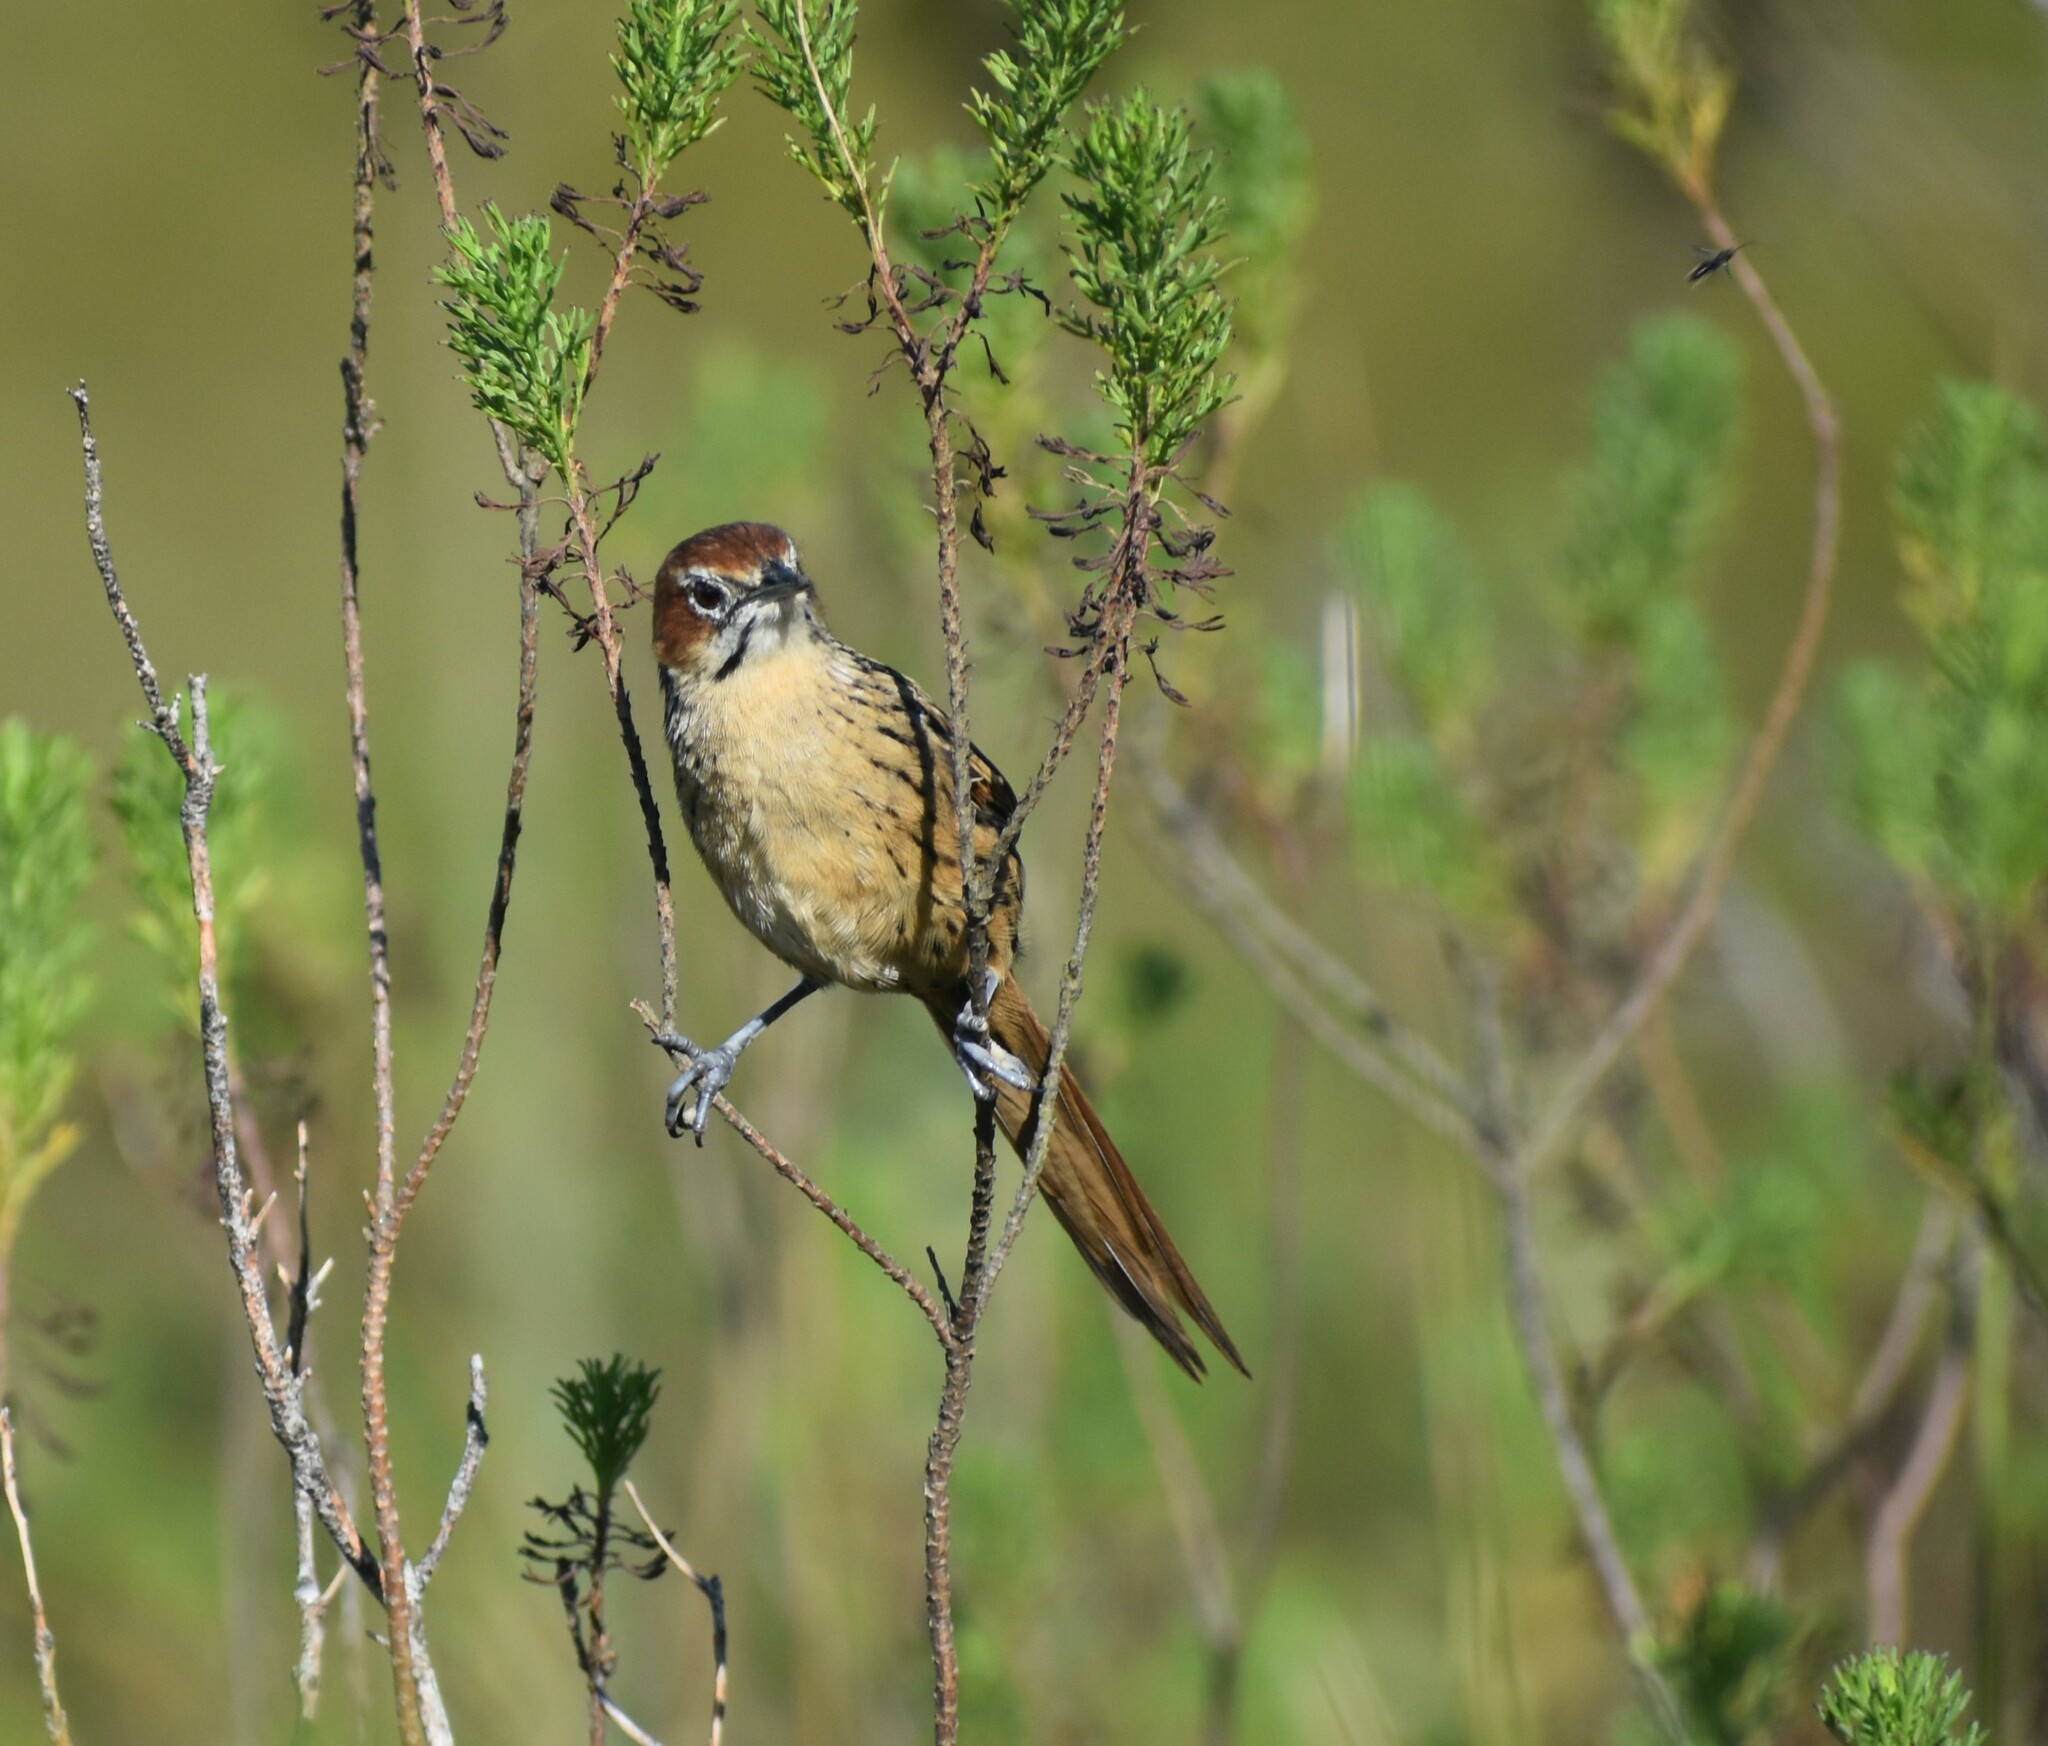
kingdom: Animalia
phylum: Chordata
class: Aves
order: Passeriformes
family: Macrosphenidae
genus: Sphenoeacus
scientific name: Sphenoeacus afer
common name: Cape grassbird
